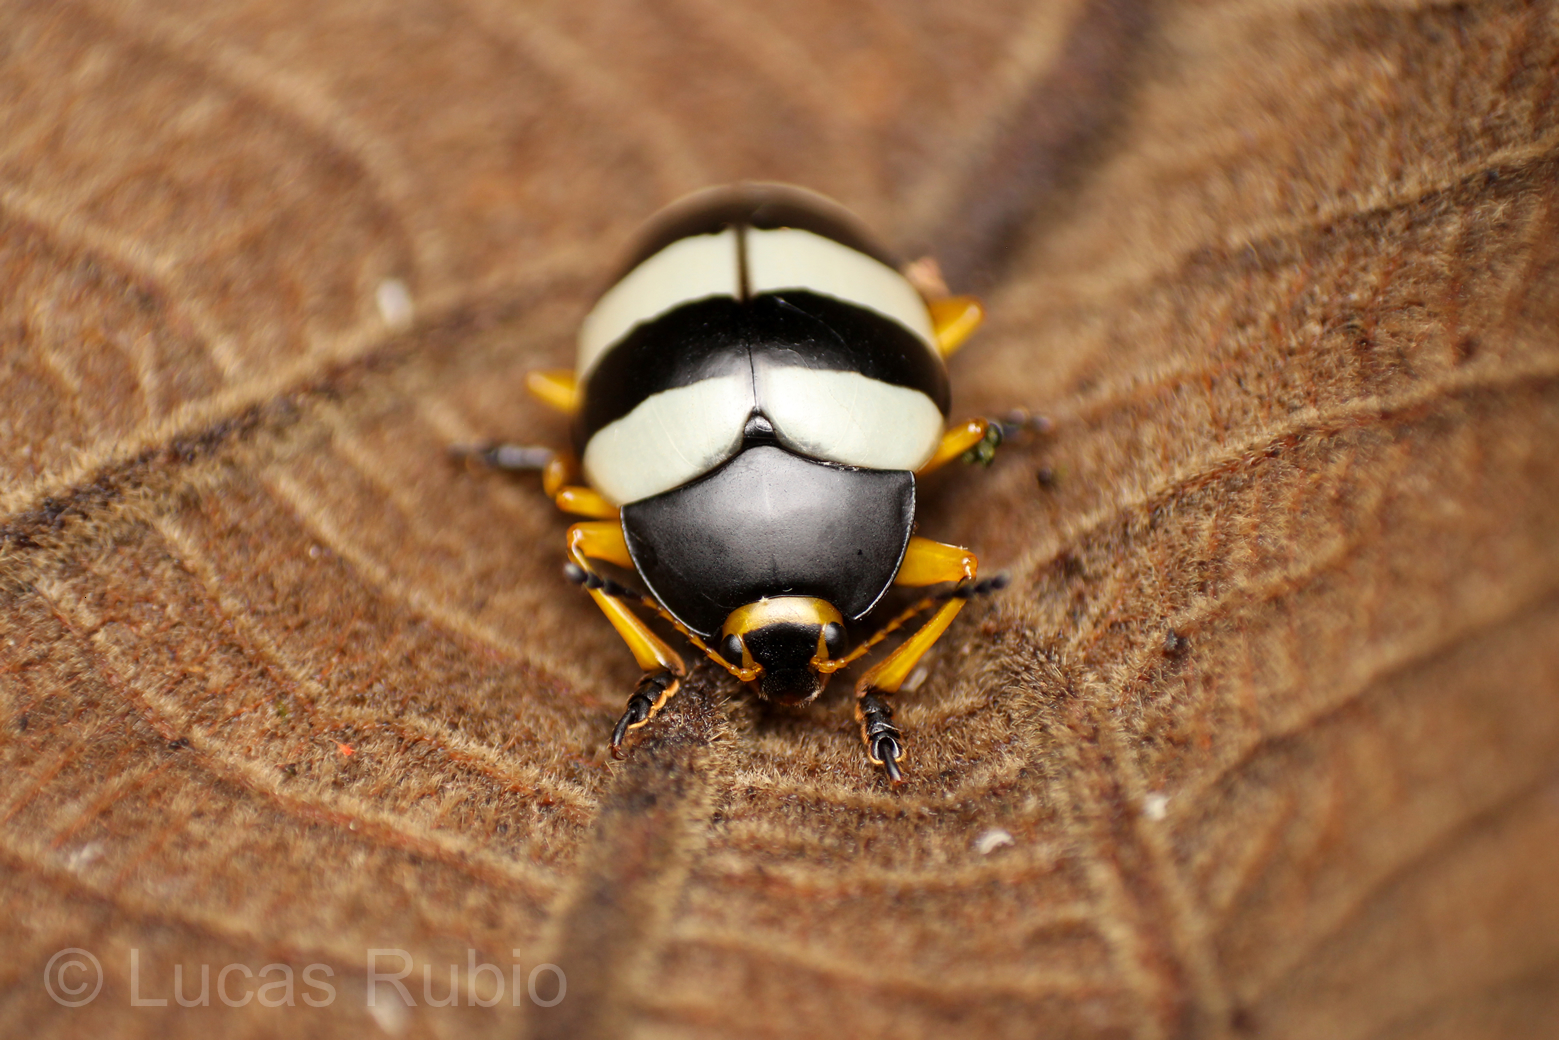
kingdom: Animalia
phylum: Arthropoda
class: Insecta
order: Coleoptera
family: Erotylidae
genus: Iphiclus
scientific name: Iphiclus
